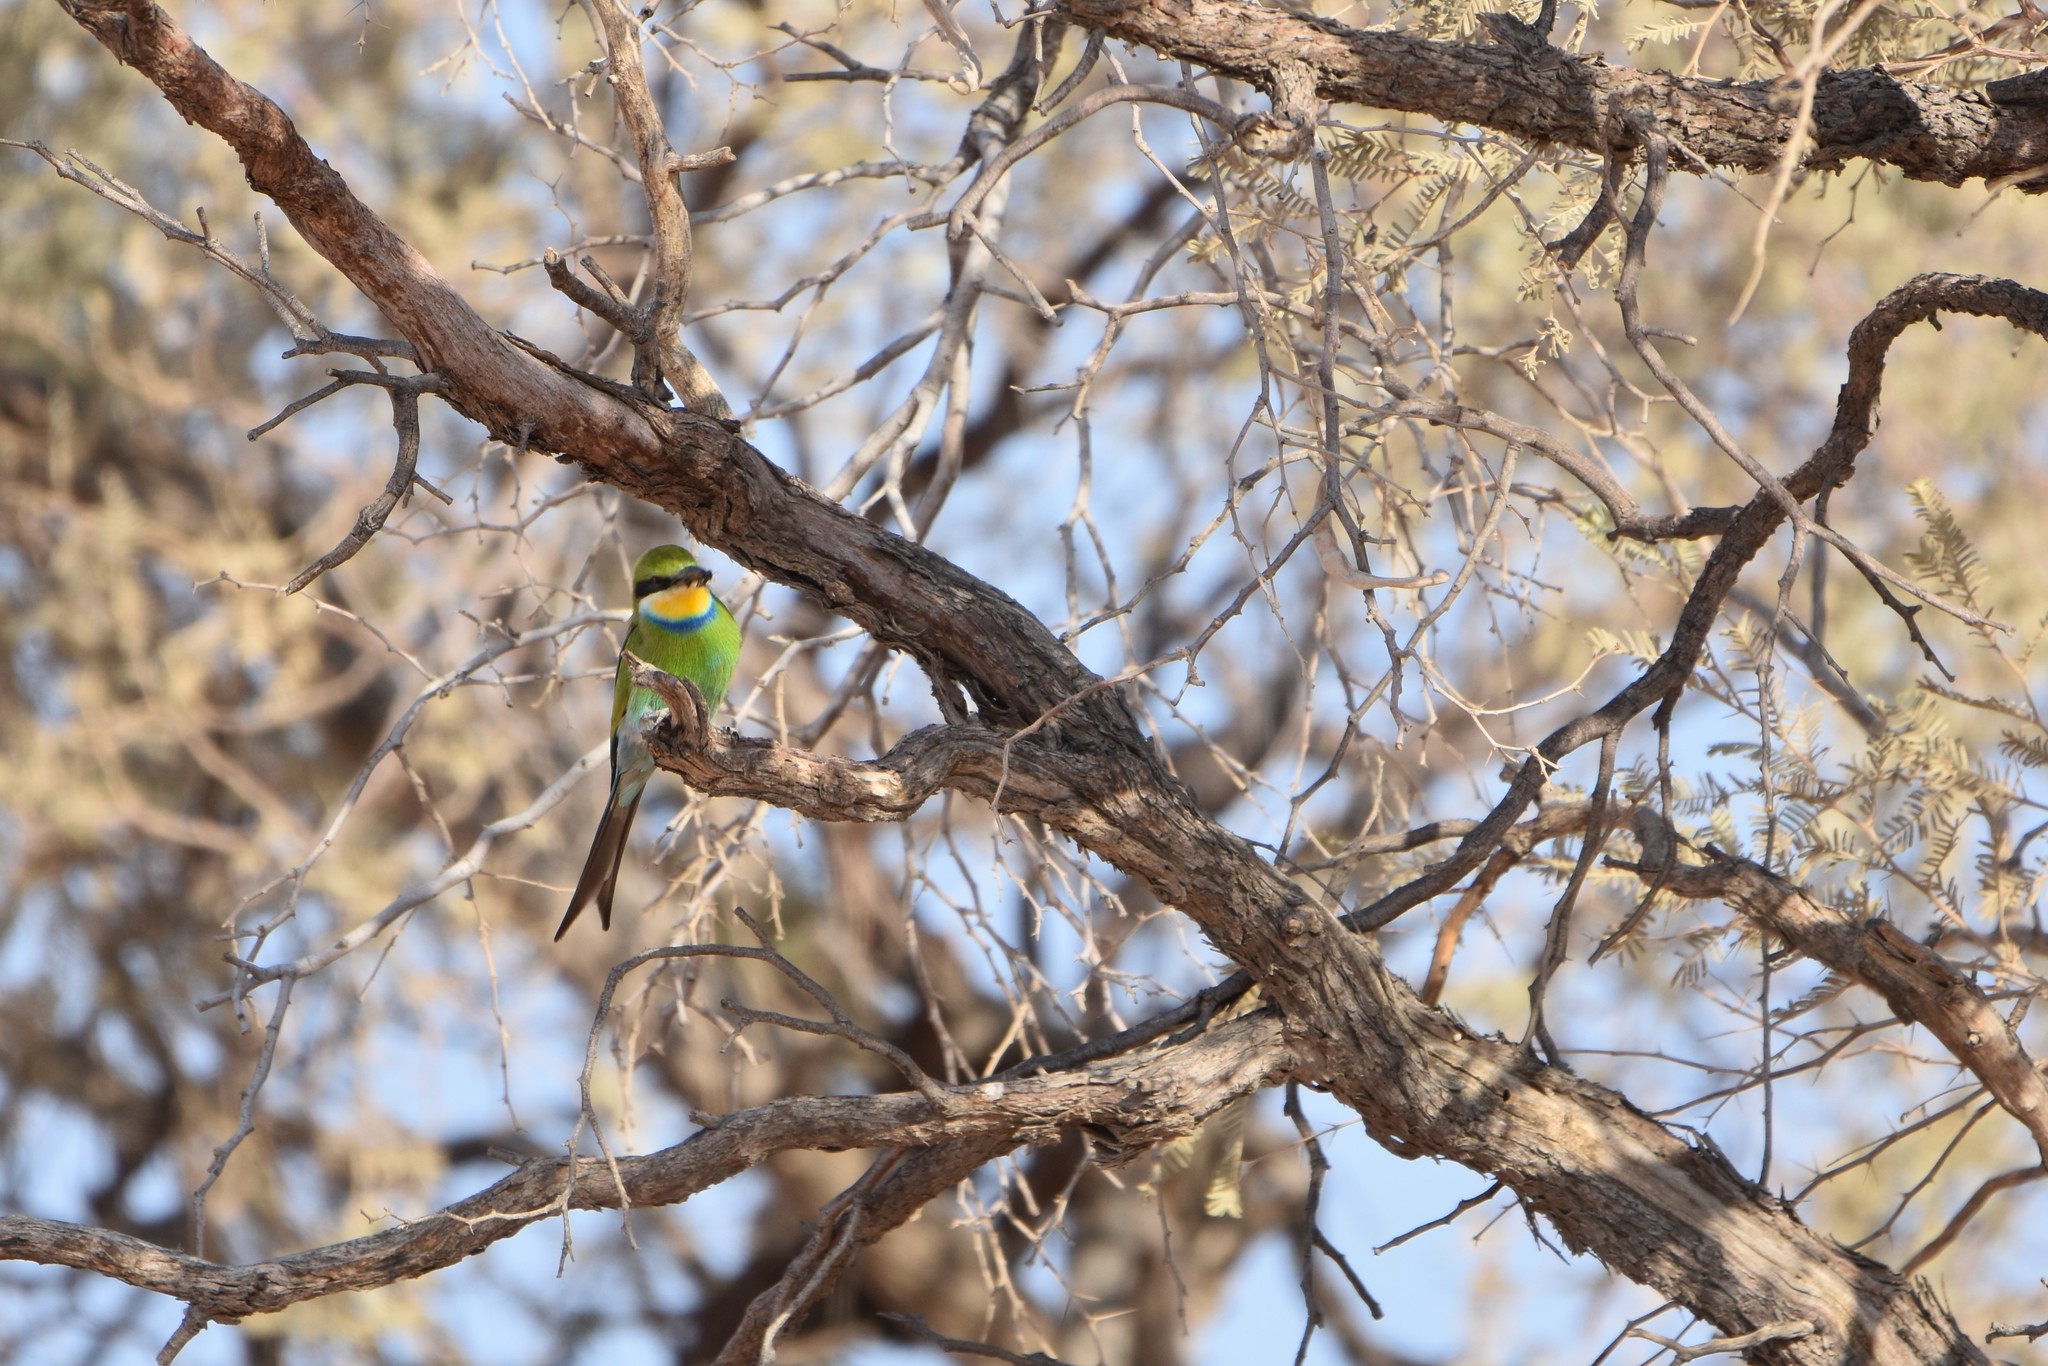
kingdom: Animalia
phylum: Chordata
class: Aves
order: Coraciiformes
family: Meropidae
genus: Merops
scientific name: Merops hirundineus
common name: Swallow-tailed bee-eater
